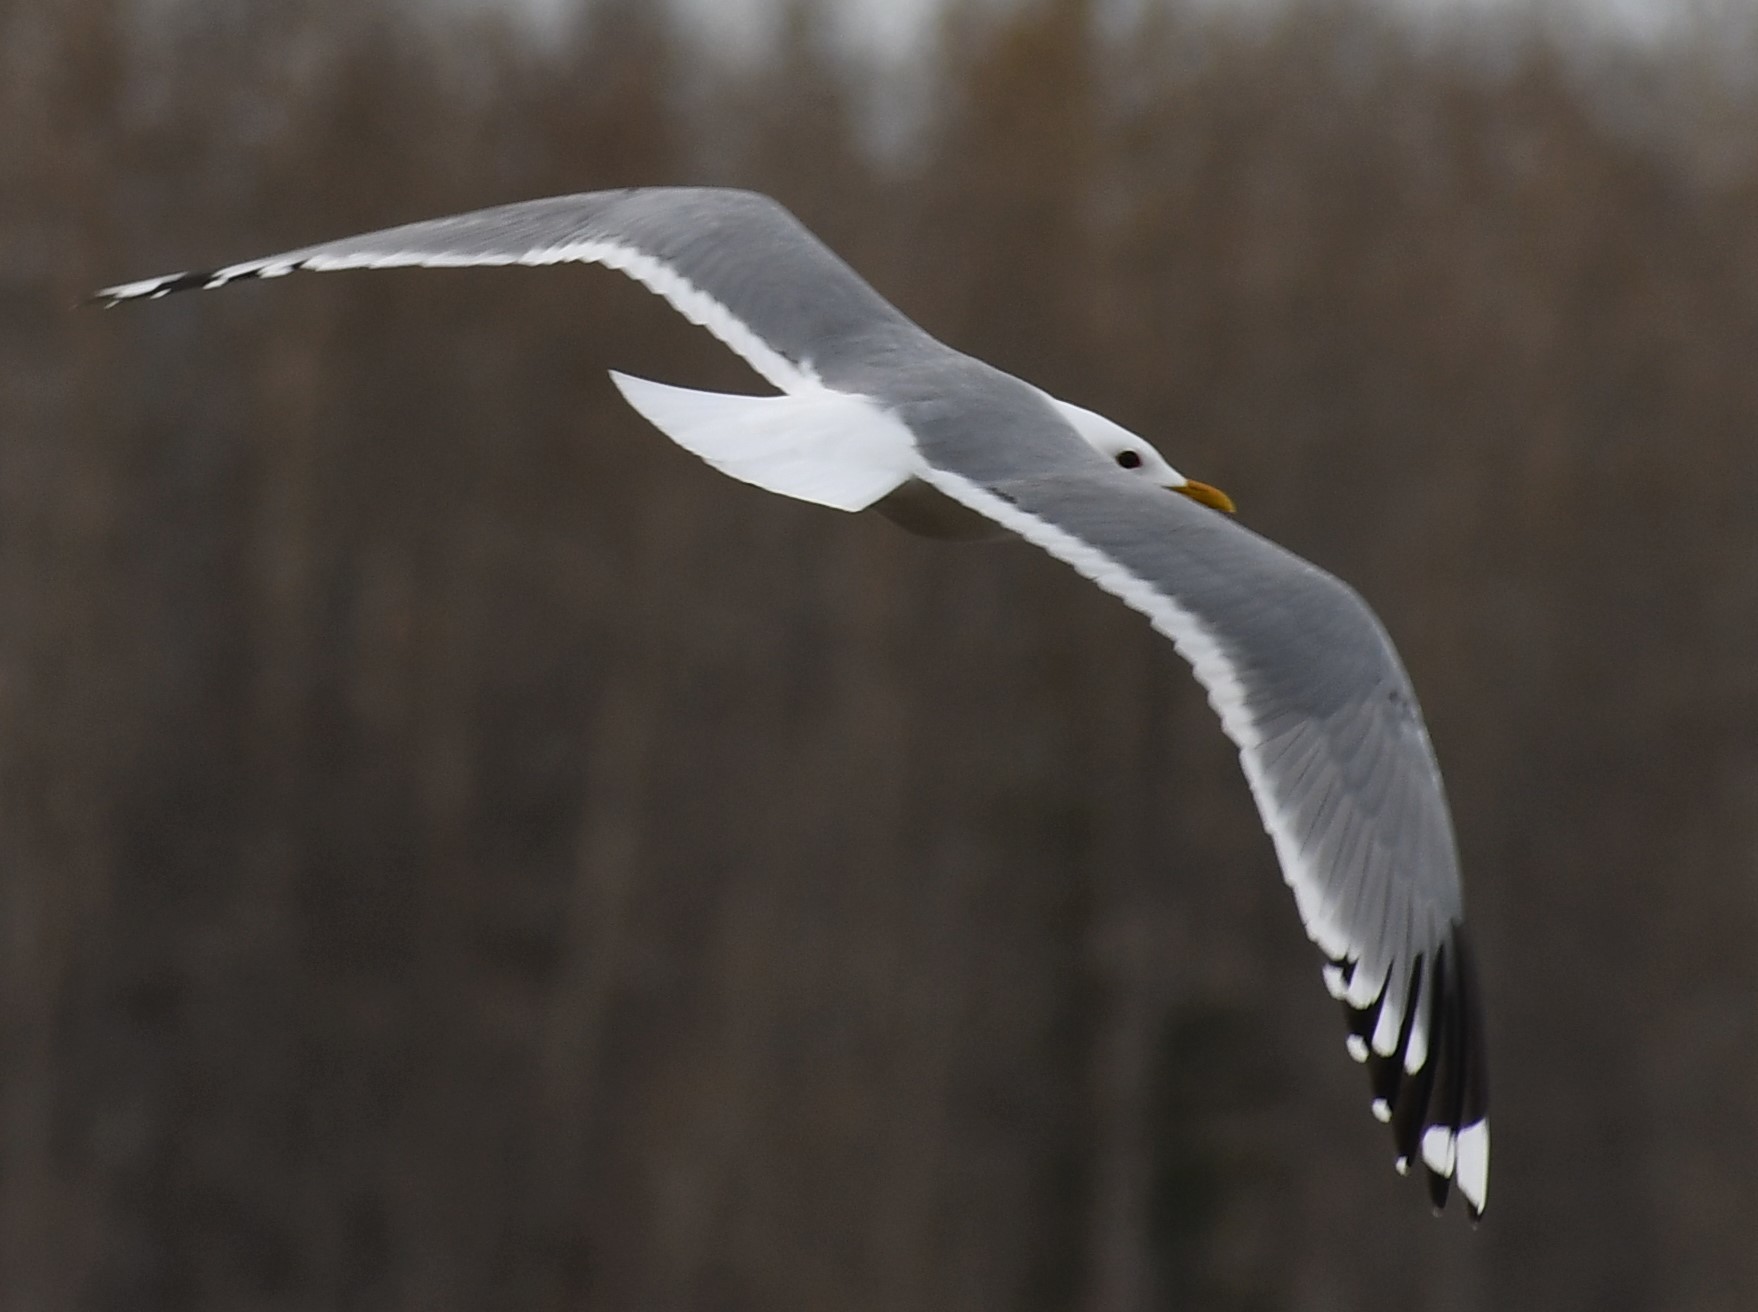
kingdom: Animalia
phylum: Chordata
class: Aves
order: Charadriiformes
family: Laridae
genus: Larus
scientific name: Larus brachyrhynchus
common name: Short-billed gull
